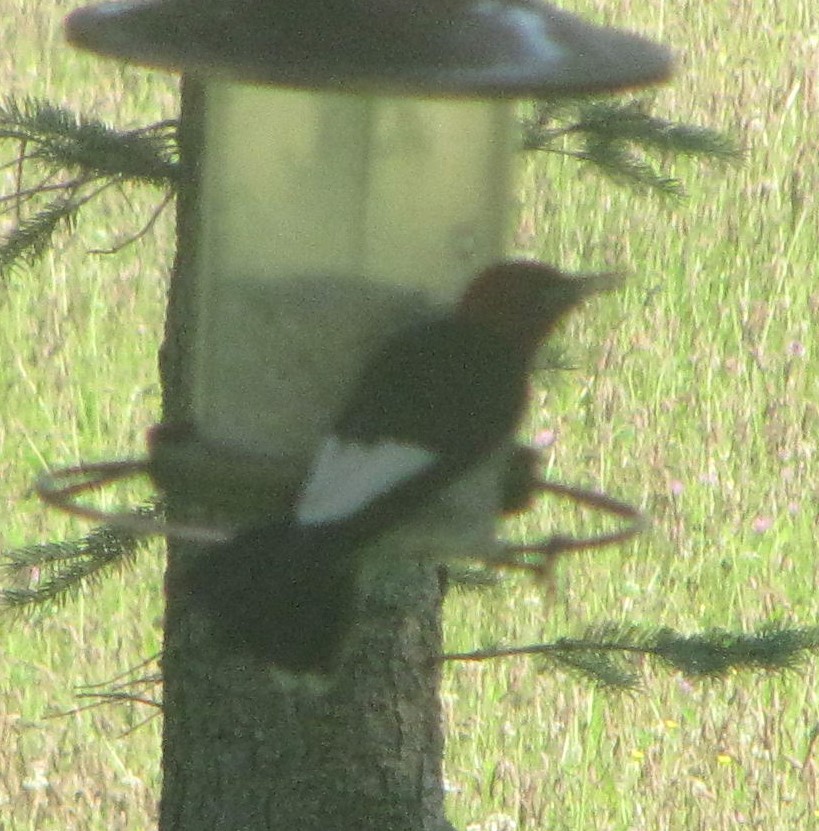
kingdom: Animalia
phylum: Chordata
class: Aves
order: Piciformes
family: Picidae
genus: Melanerpes
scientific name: Melanerpes erythrocephalus
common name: Red-headed woodpecker
